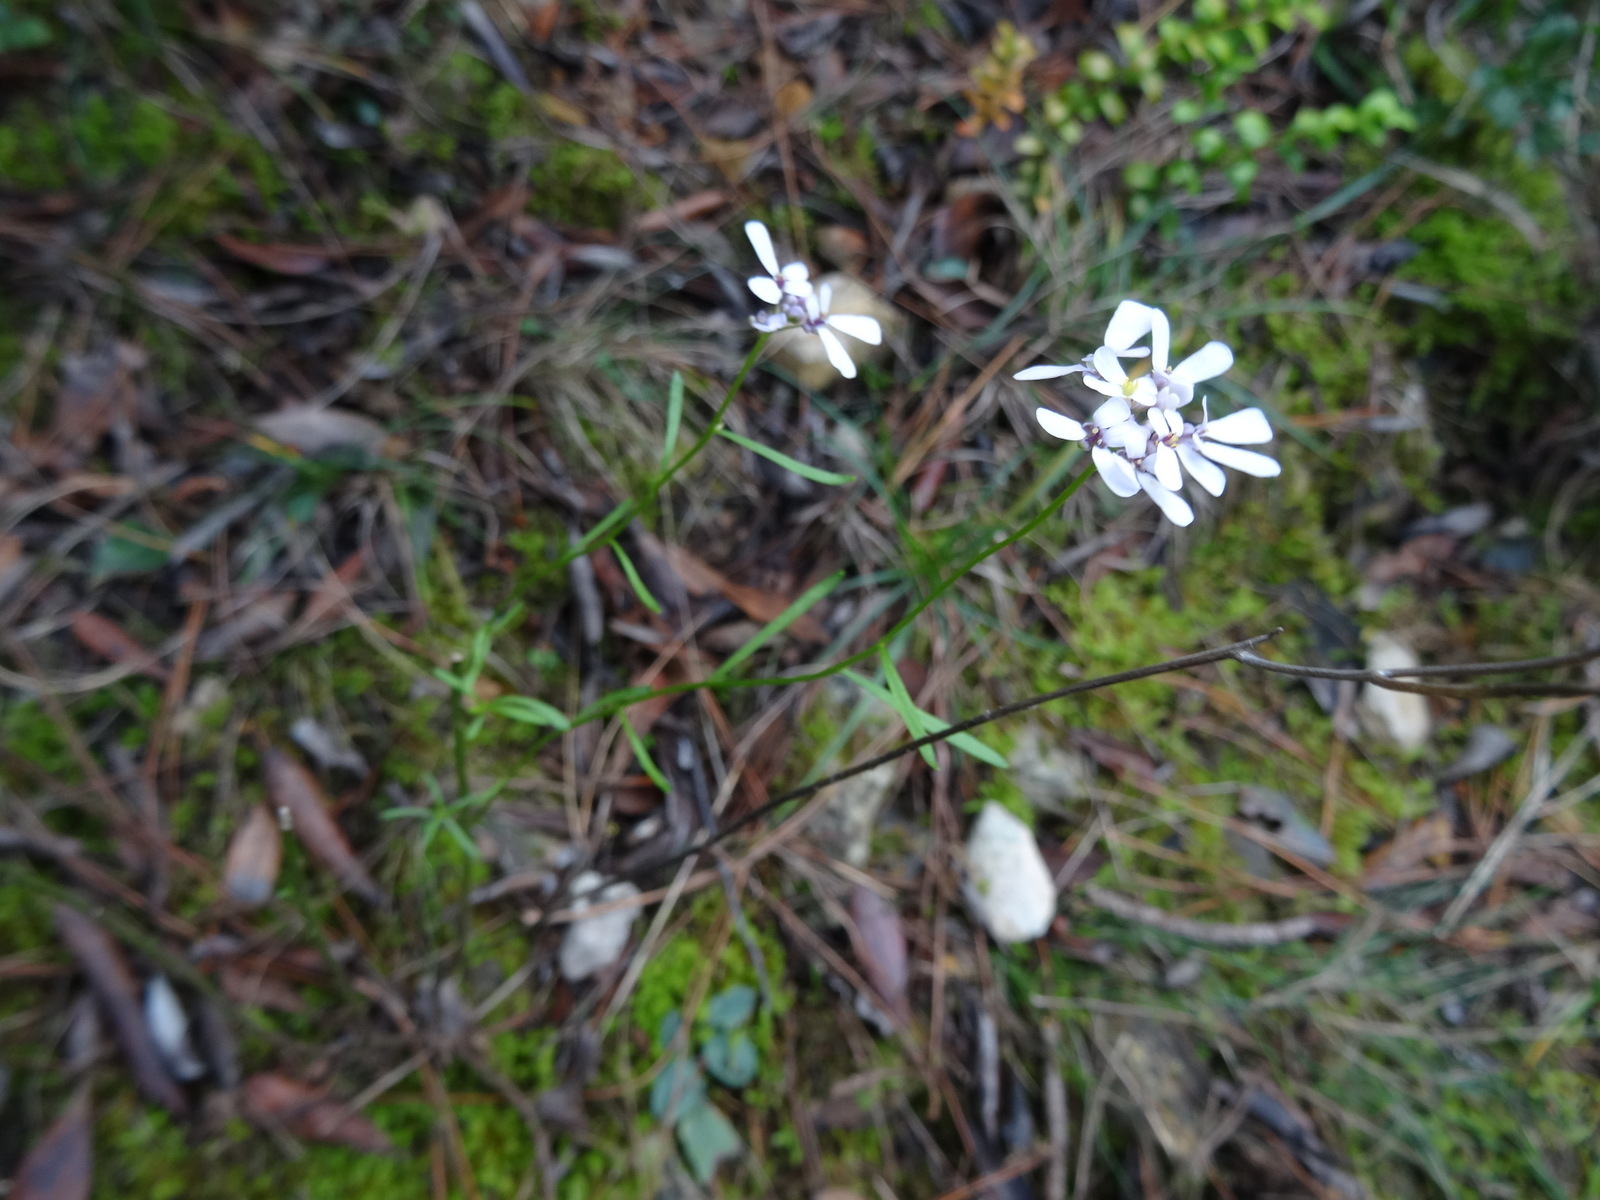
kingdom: Plantae
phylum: Tracheophyta
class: Magnoliopsida
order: Brassicales
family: Brassicaceae
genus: Iberis
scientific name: Iberis linifolia
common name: Candytuft
